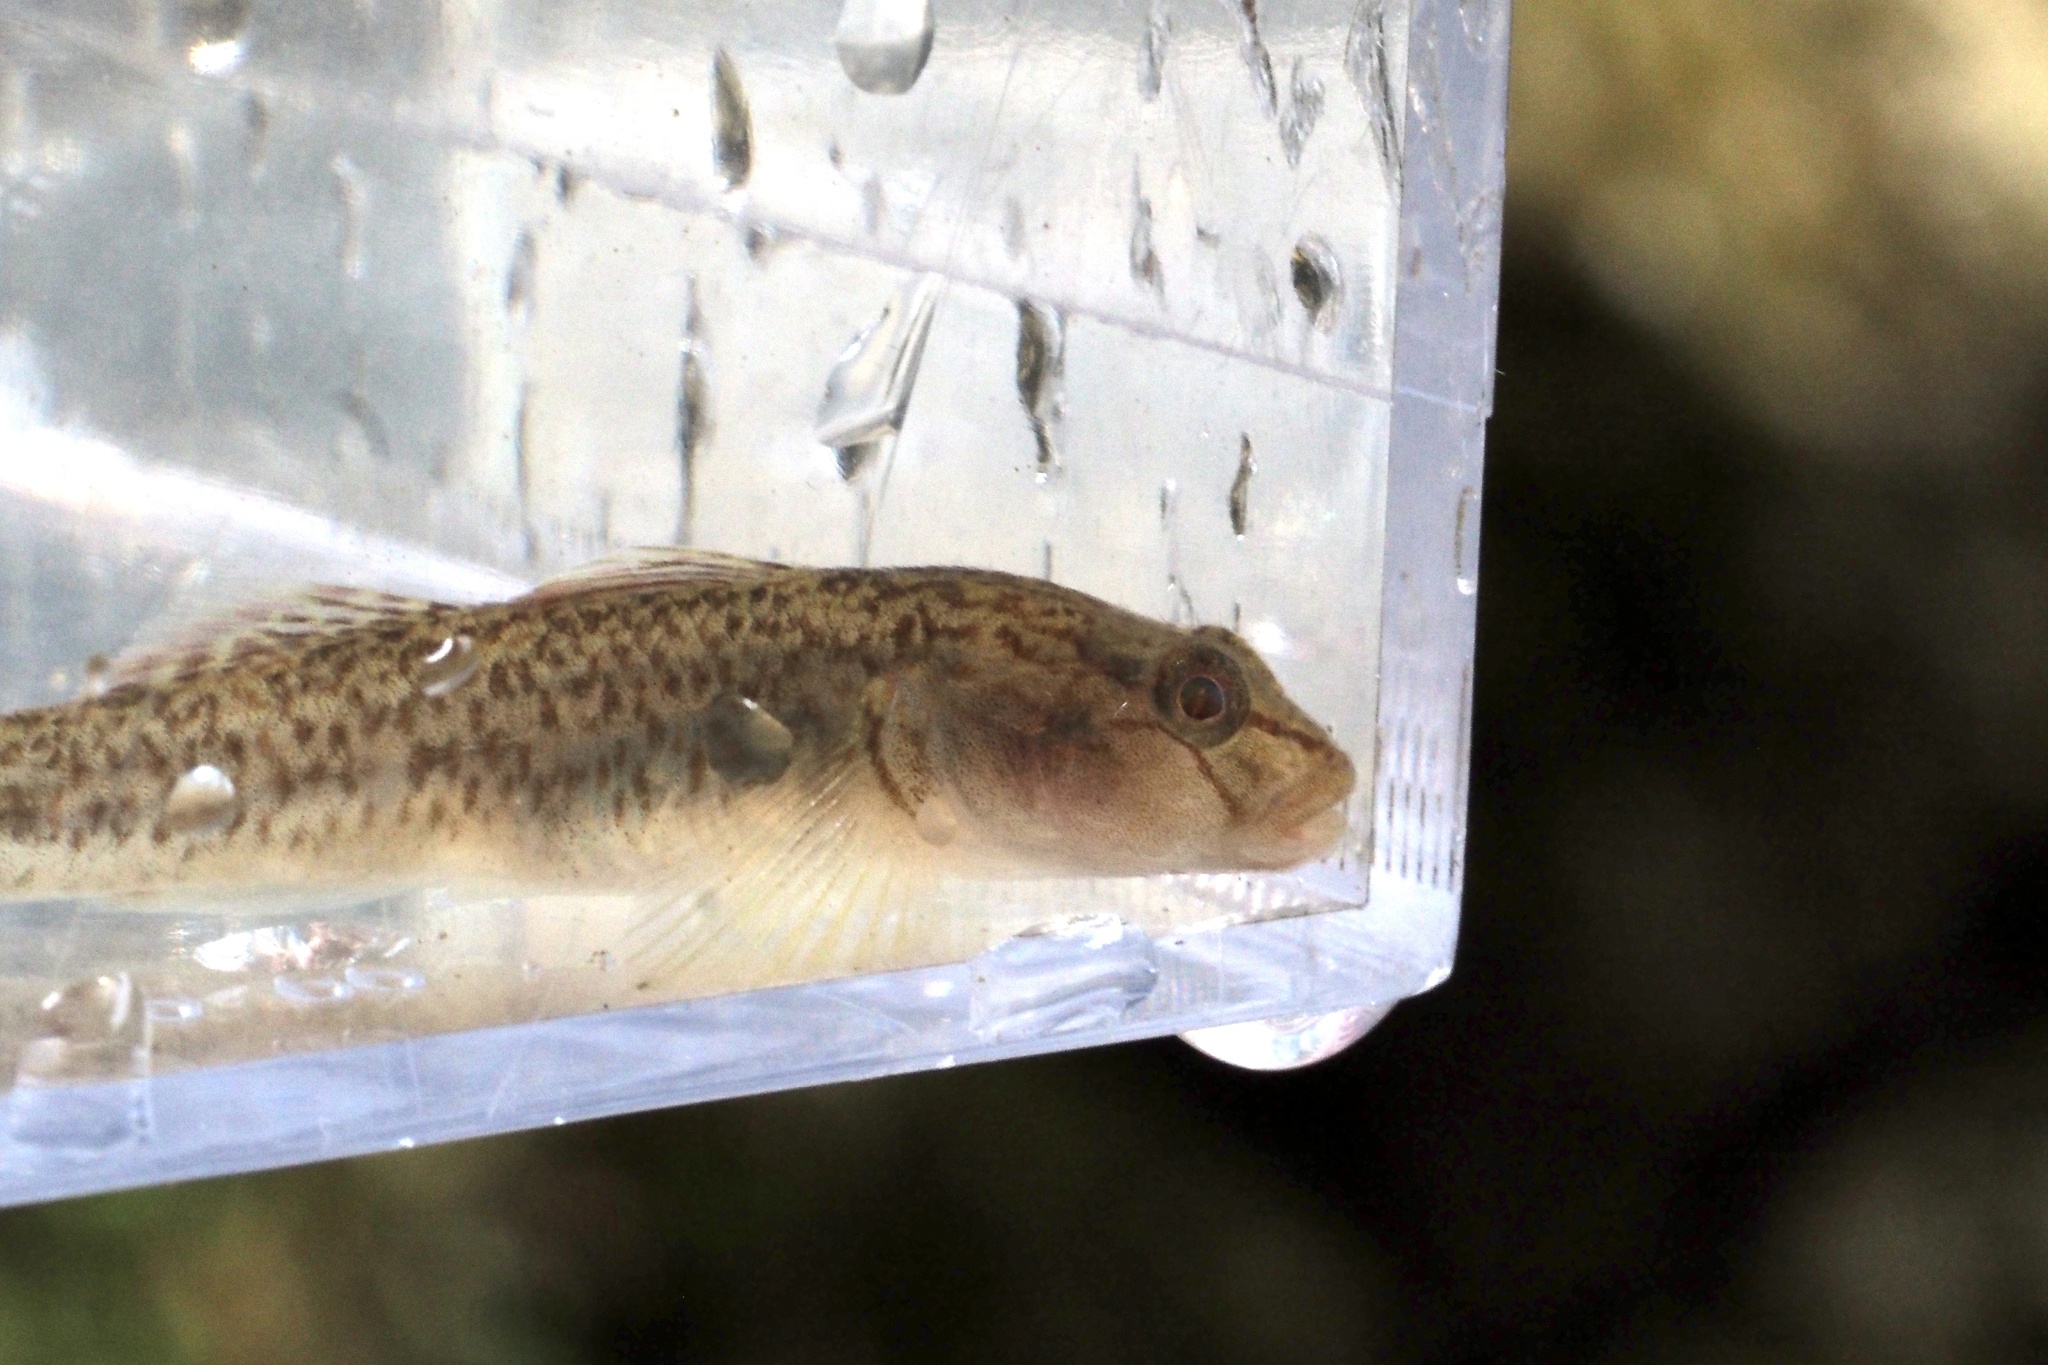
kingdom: Animalia
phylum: Chordata
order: Perciformes
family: Gobiidae
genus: Rhinogobius
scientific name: Rhinogobius flumineus
